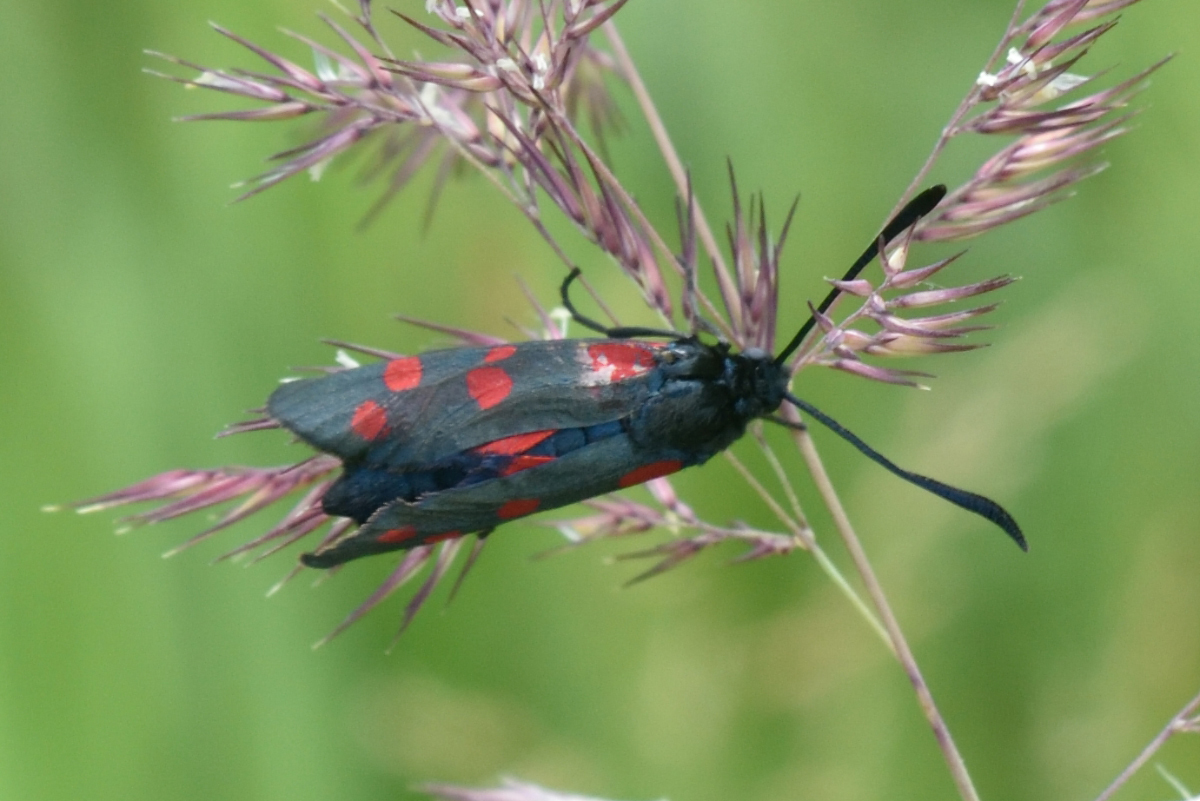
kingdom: Animalia
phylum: Arthropoda
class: Insecta
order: Lepidoptera
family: Zygaenidae
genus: Zygaena
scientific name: Zygaena filipendulae
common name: Six-spot burnet
